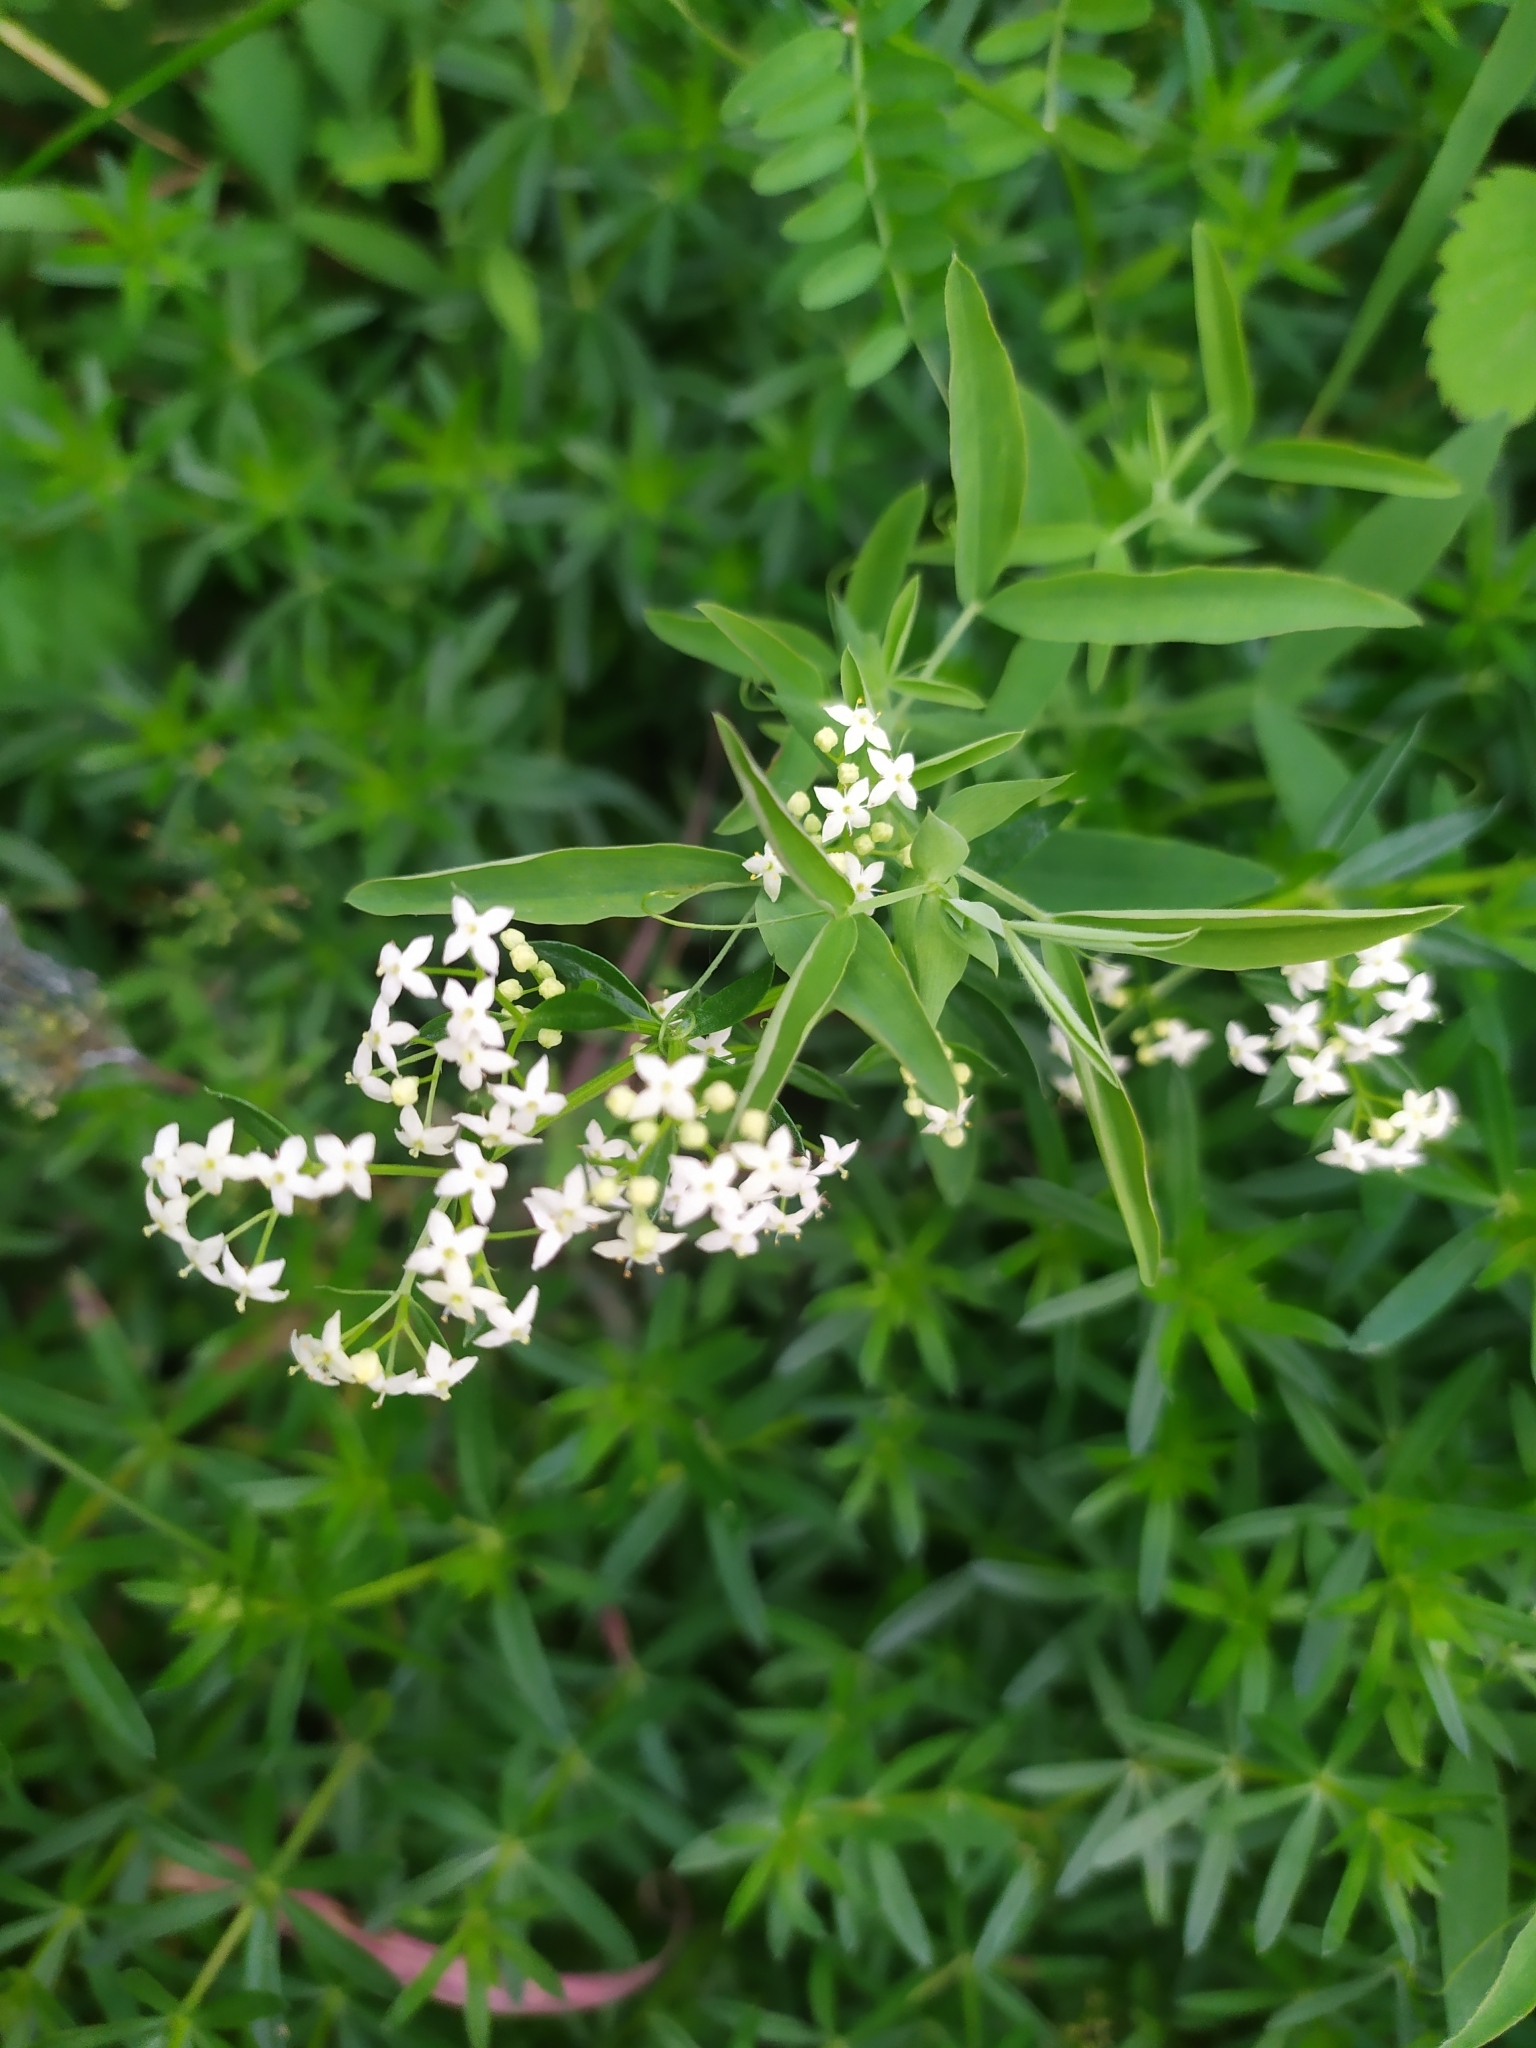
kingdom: Plantae
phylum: Tracheophyta
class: Magnoliopsida
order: Gentianales
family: Rubiaceae
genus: Galium
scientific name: Galium mollugo
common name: Hedge bedstraw
